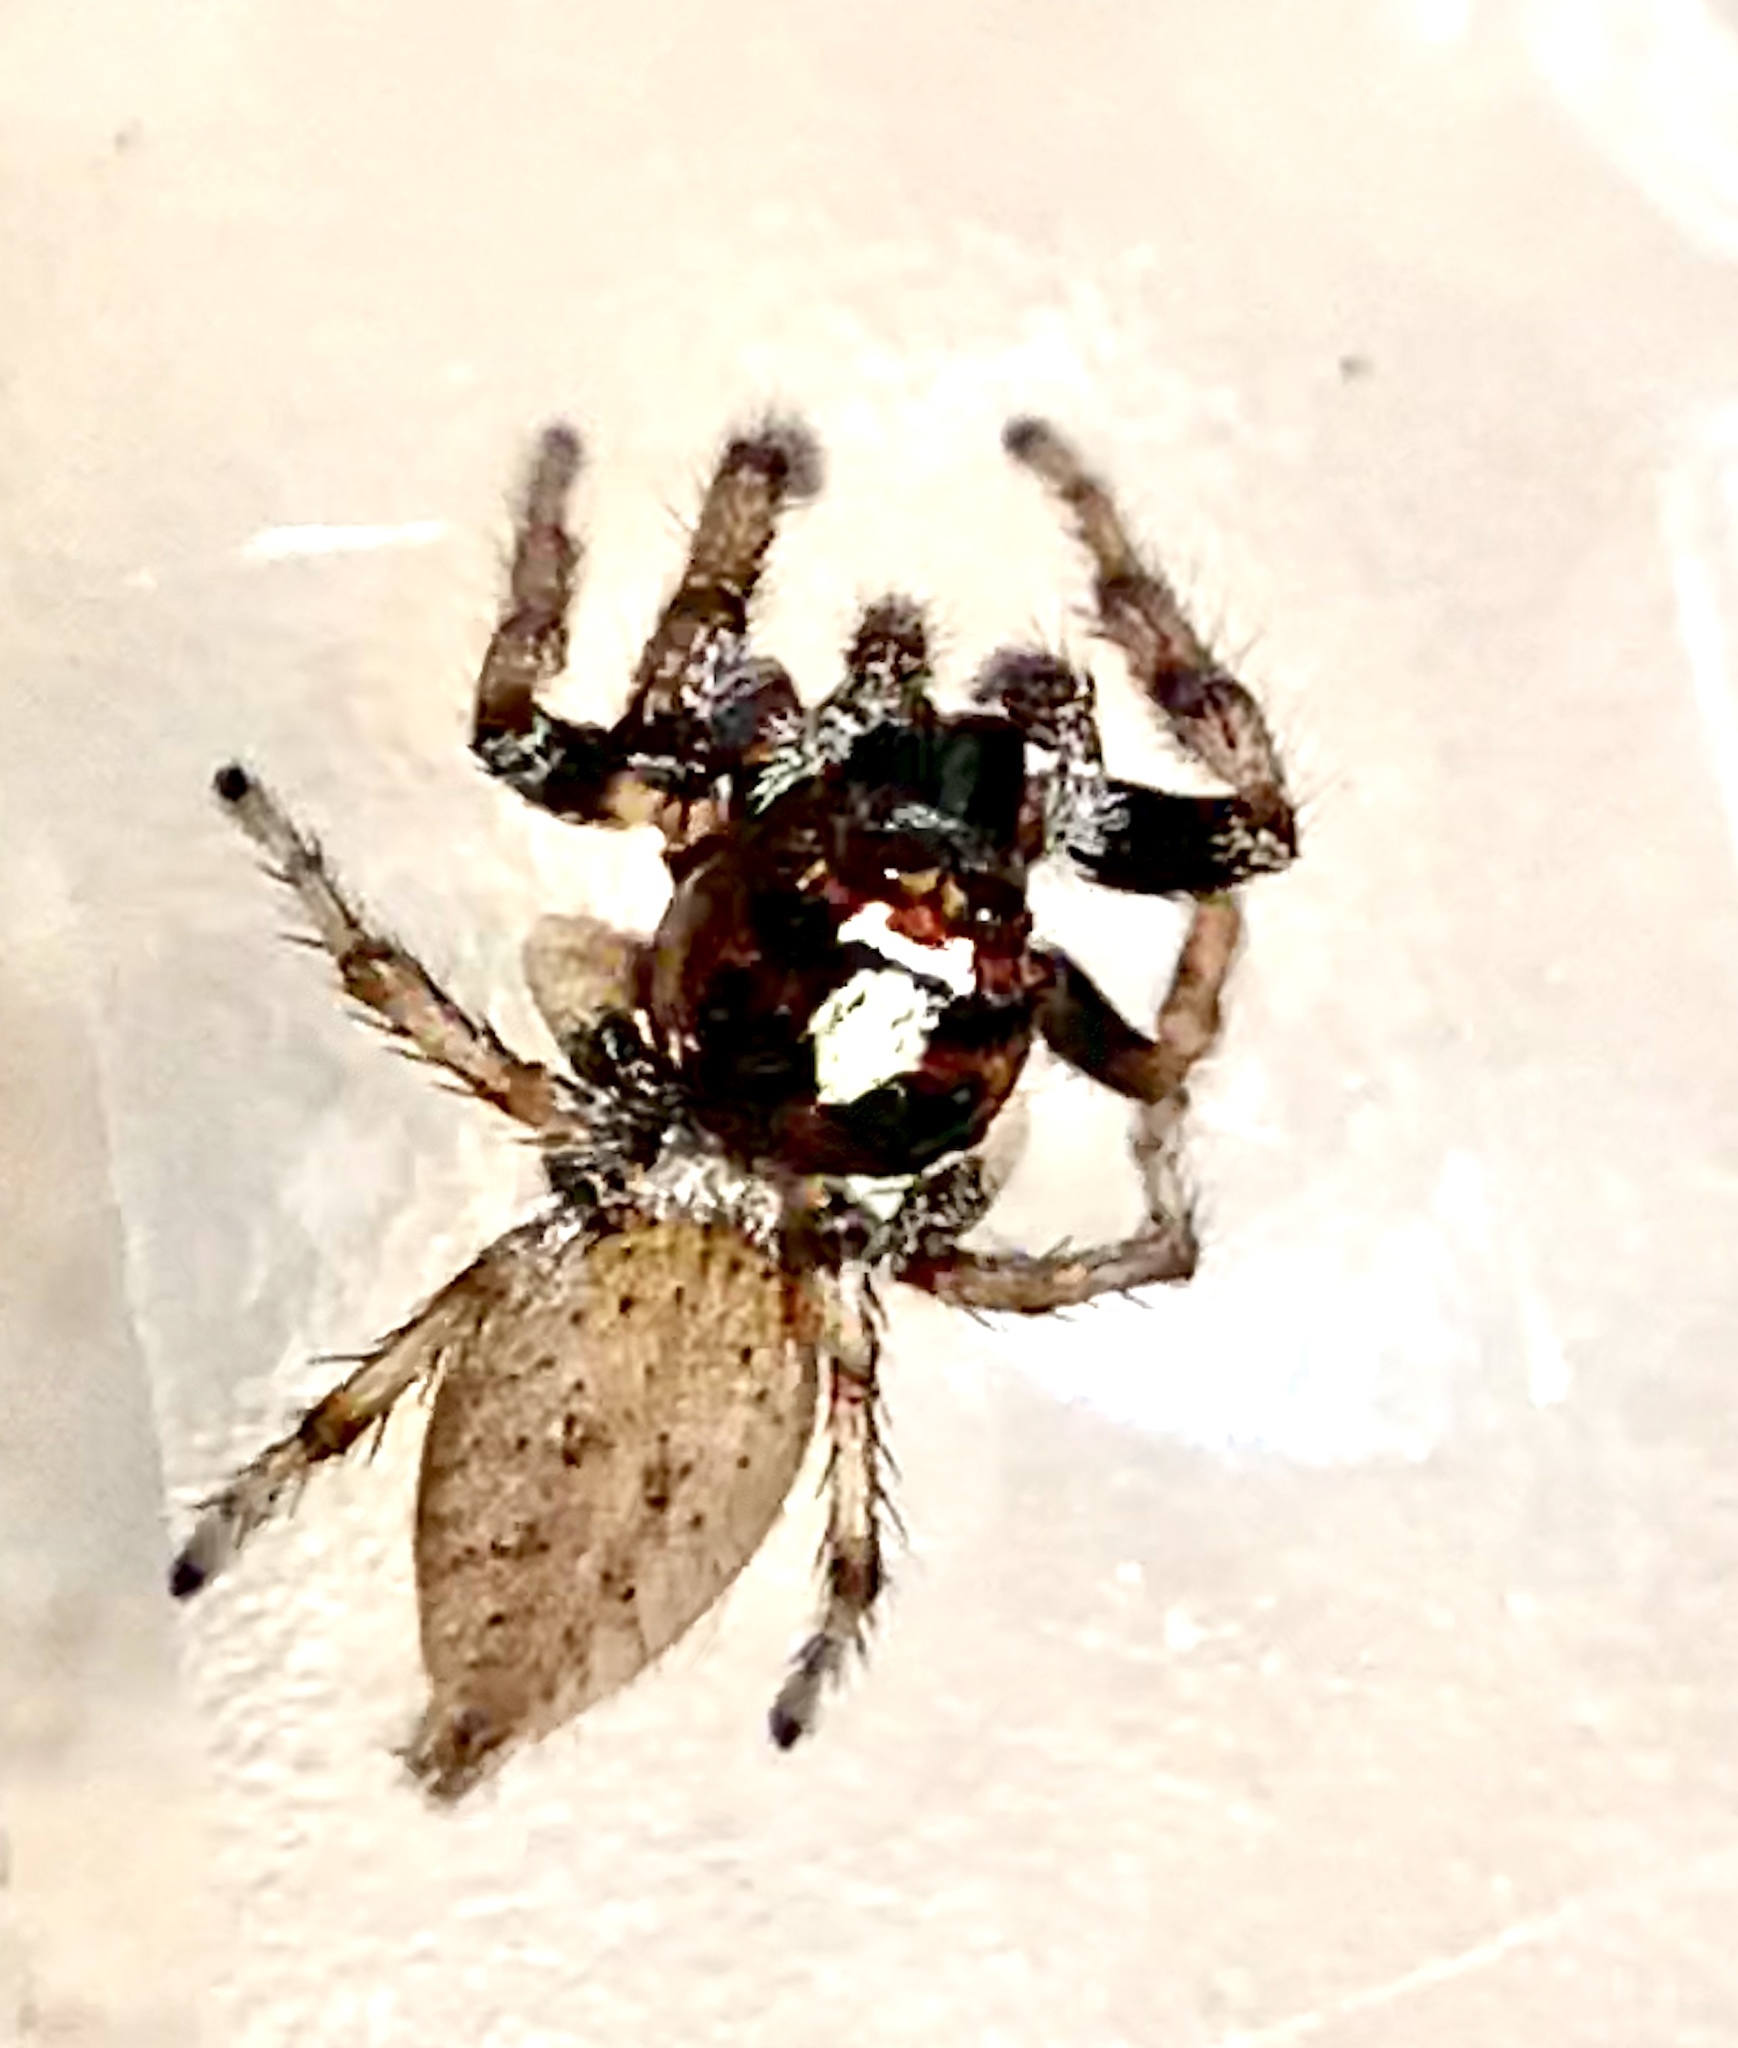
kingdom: Animalia
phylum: Arthropoda
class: Arachnida
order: Araneae
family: Salticidae
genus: Colonus
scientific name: Colonus hesperus
